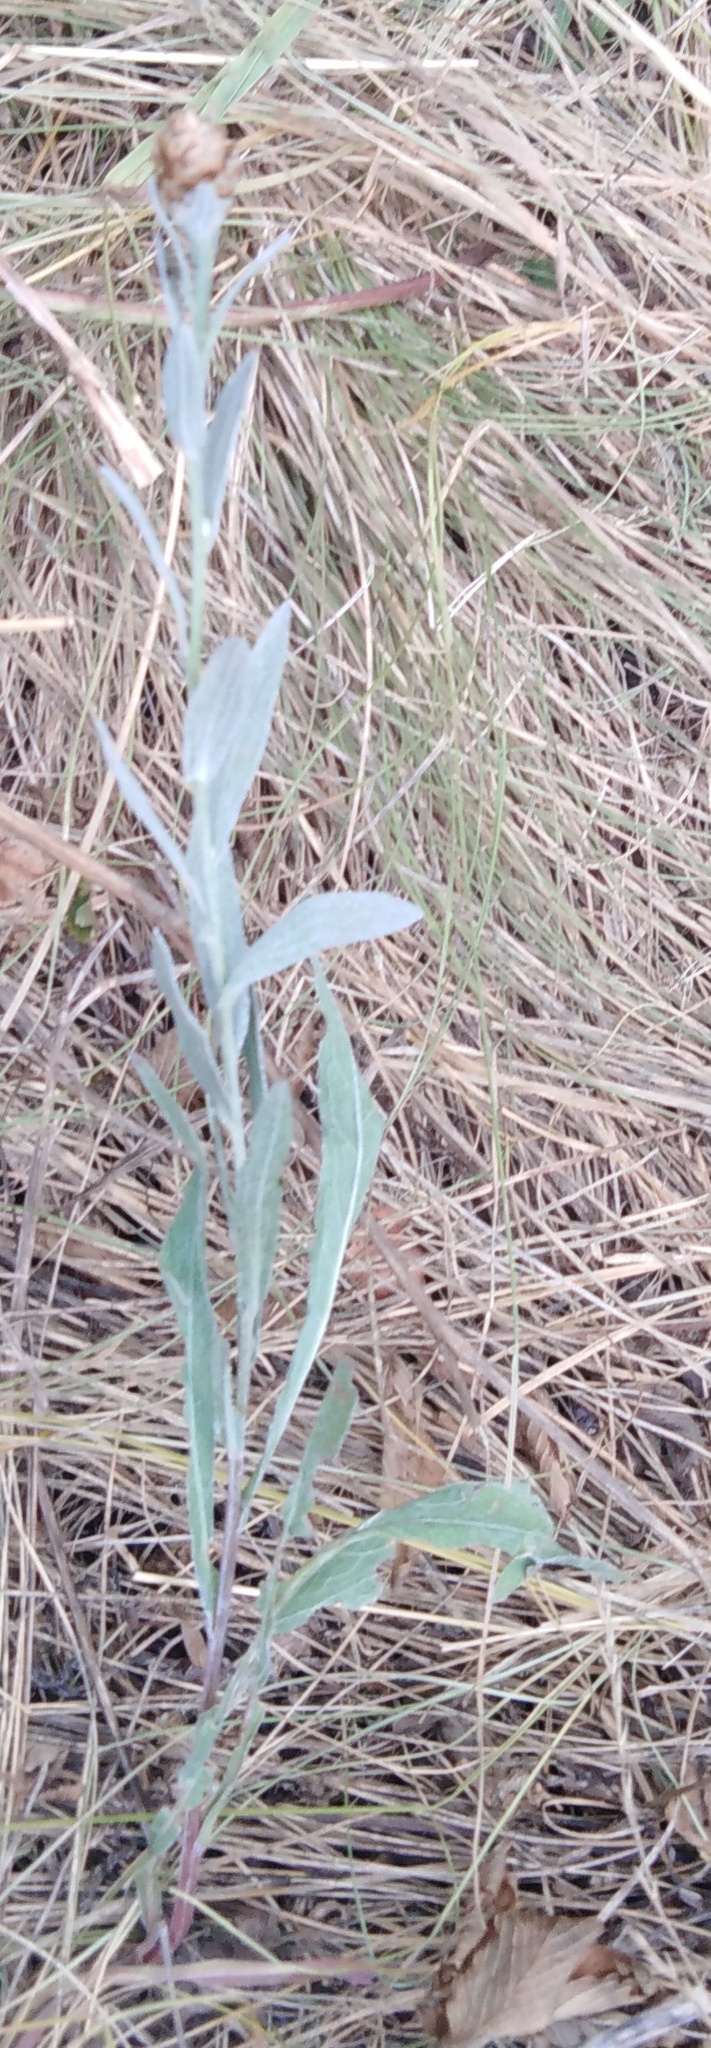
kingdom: Plantae
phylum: Tracheophyta
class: Magnoliopsida
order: Asterales
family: Asteraceae
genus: Centaurea
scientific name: Centaurea jacea
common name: Brown knapweed
